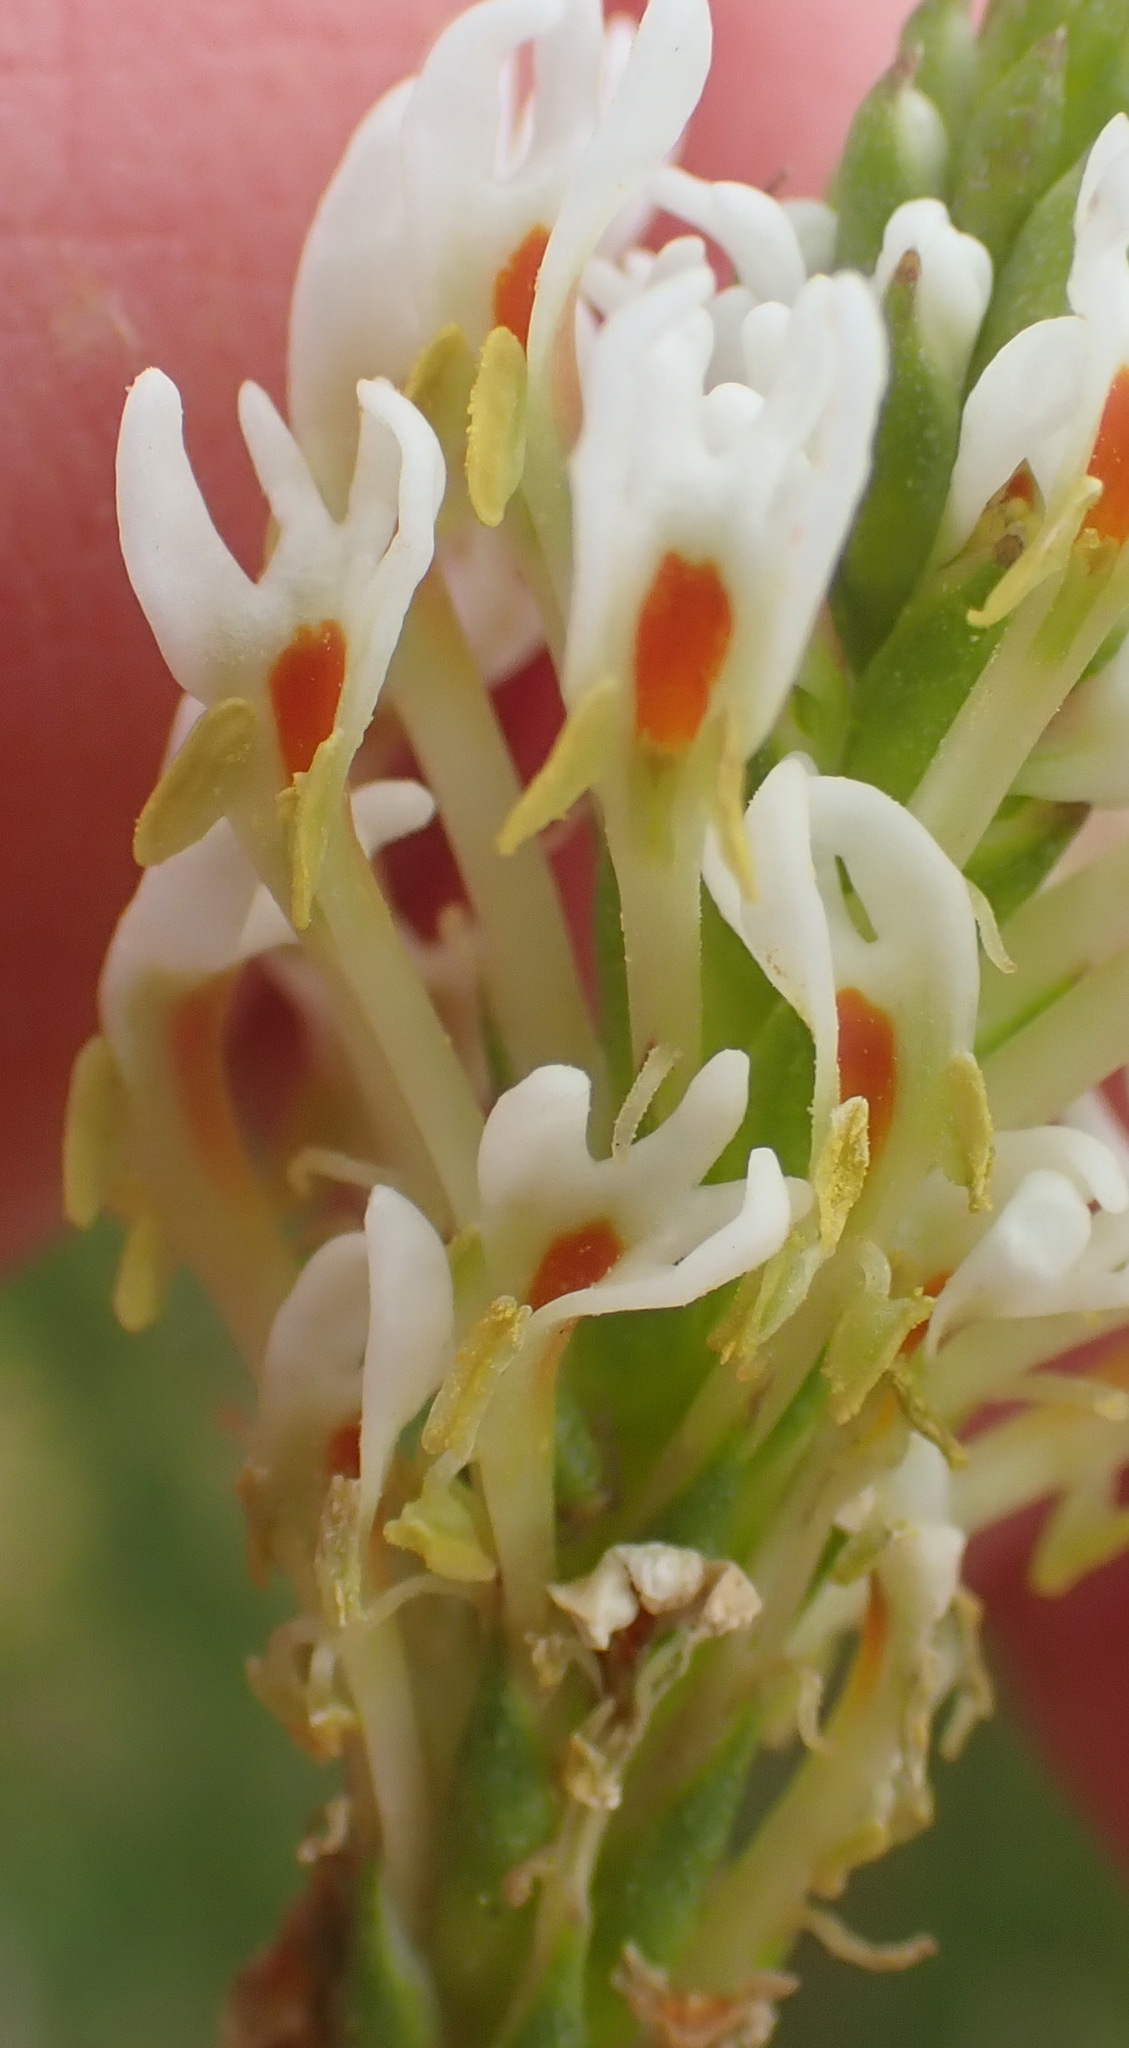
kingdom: Plantae
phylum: Tracheophyta
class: Magnoliopsida
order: Lamiales
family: Scrophulariaceae
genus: Hebenstretia
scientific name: Hebenstretia integrifolia
